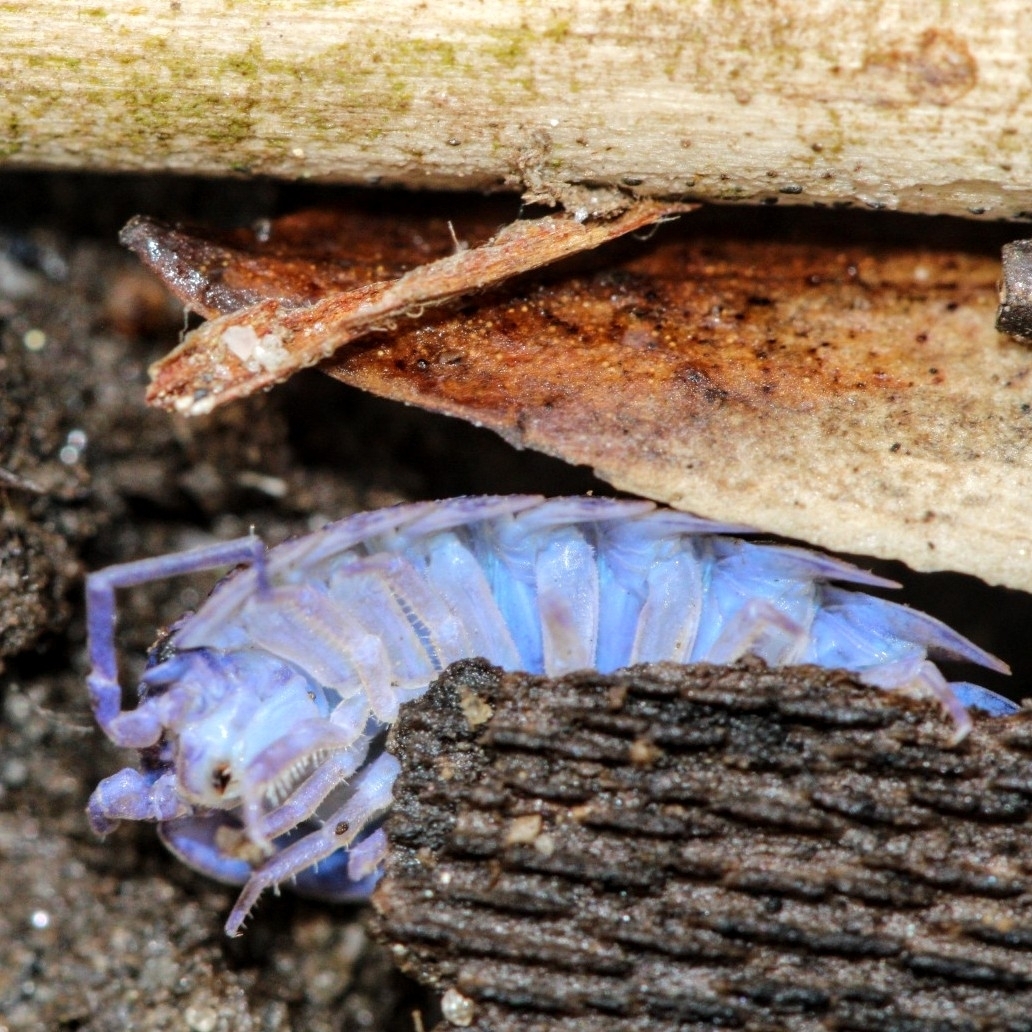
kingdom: Animalia
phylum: Arthropoda
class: Malacostraca
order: Isopoda
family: Trachelipodidae
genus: Trachelipus
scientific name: Trachelipus rathkii
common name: Isopod
